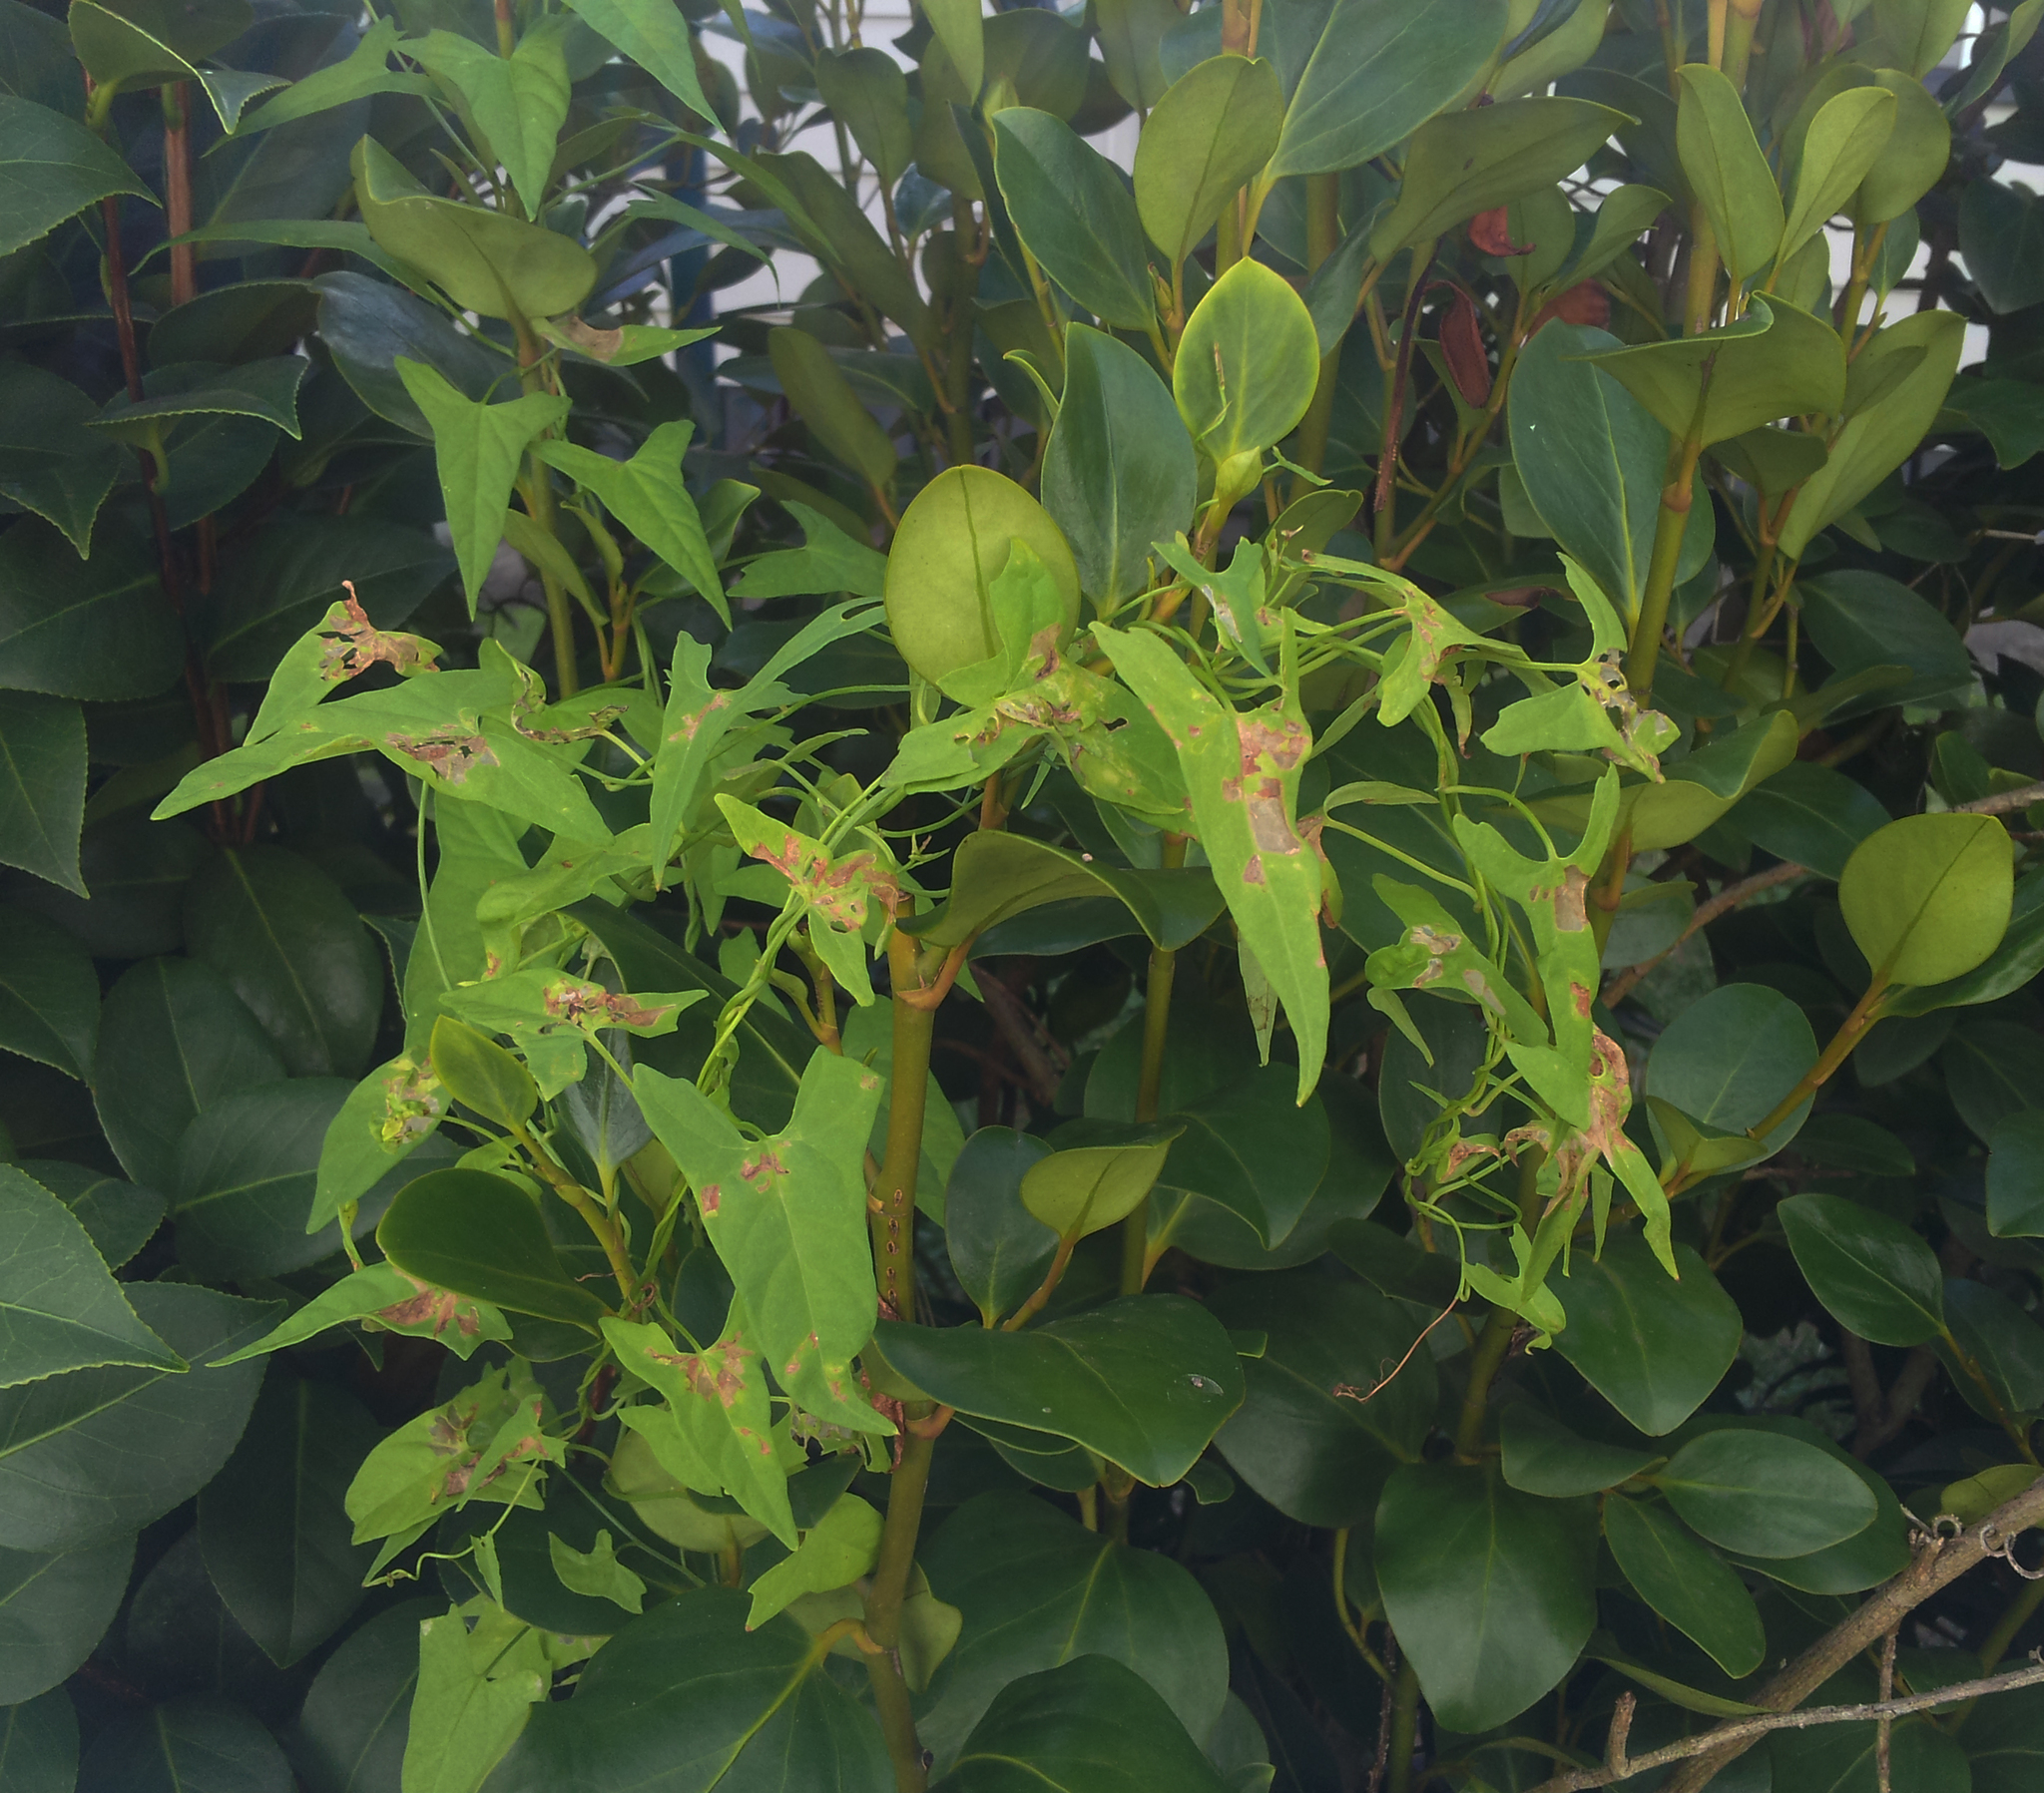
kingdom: Plantae
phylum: Tracheophyta
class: Magnoliopsida
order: Solanales
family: Convolvulaceae
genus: Calystegia
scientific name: Calystegia marginata
